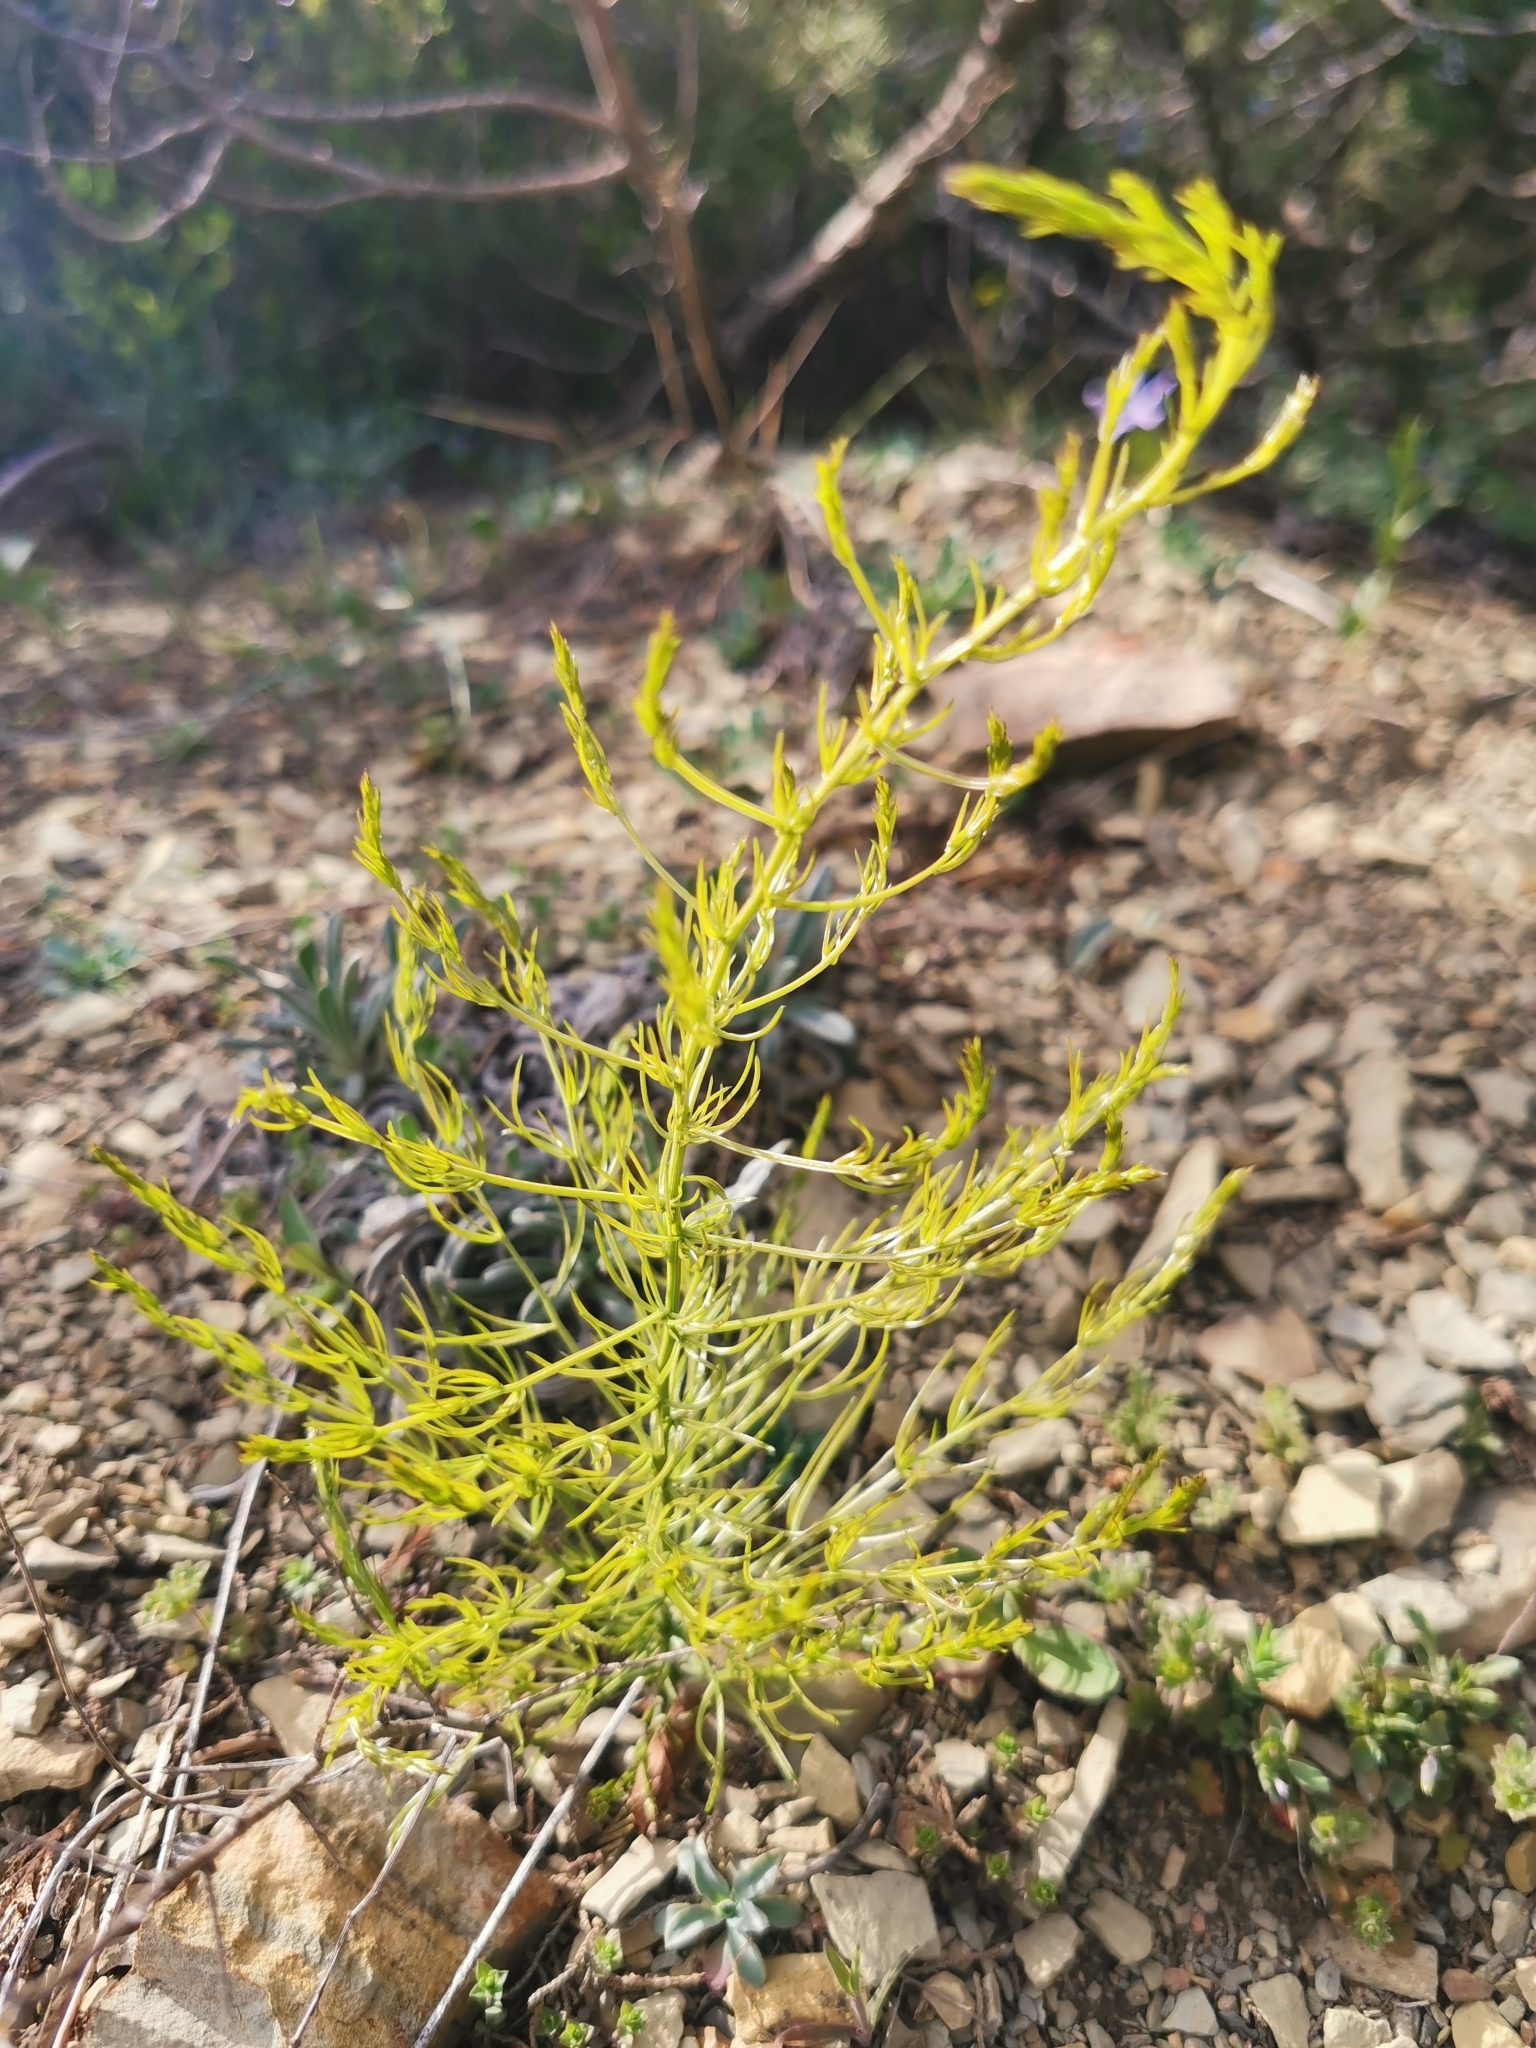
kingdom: Plantae
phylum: Tracheophyta
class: Liliopsida
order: Asparagales
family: Asparagaceae
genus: Asparagus
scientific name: Asparagus verticillatus
